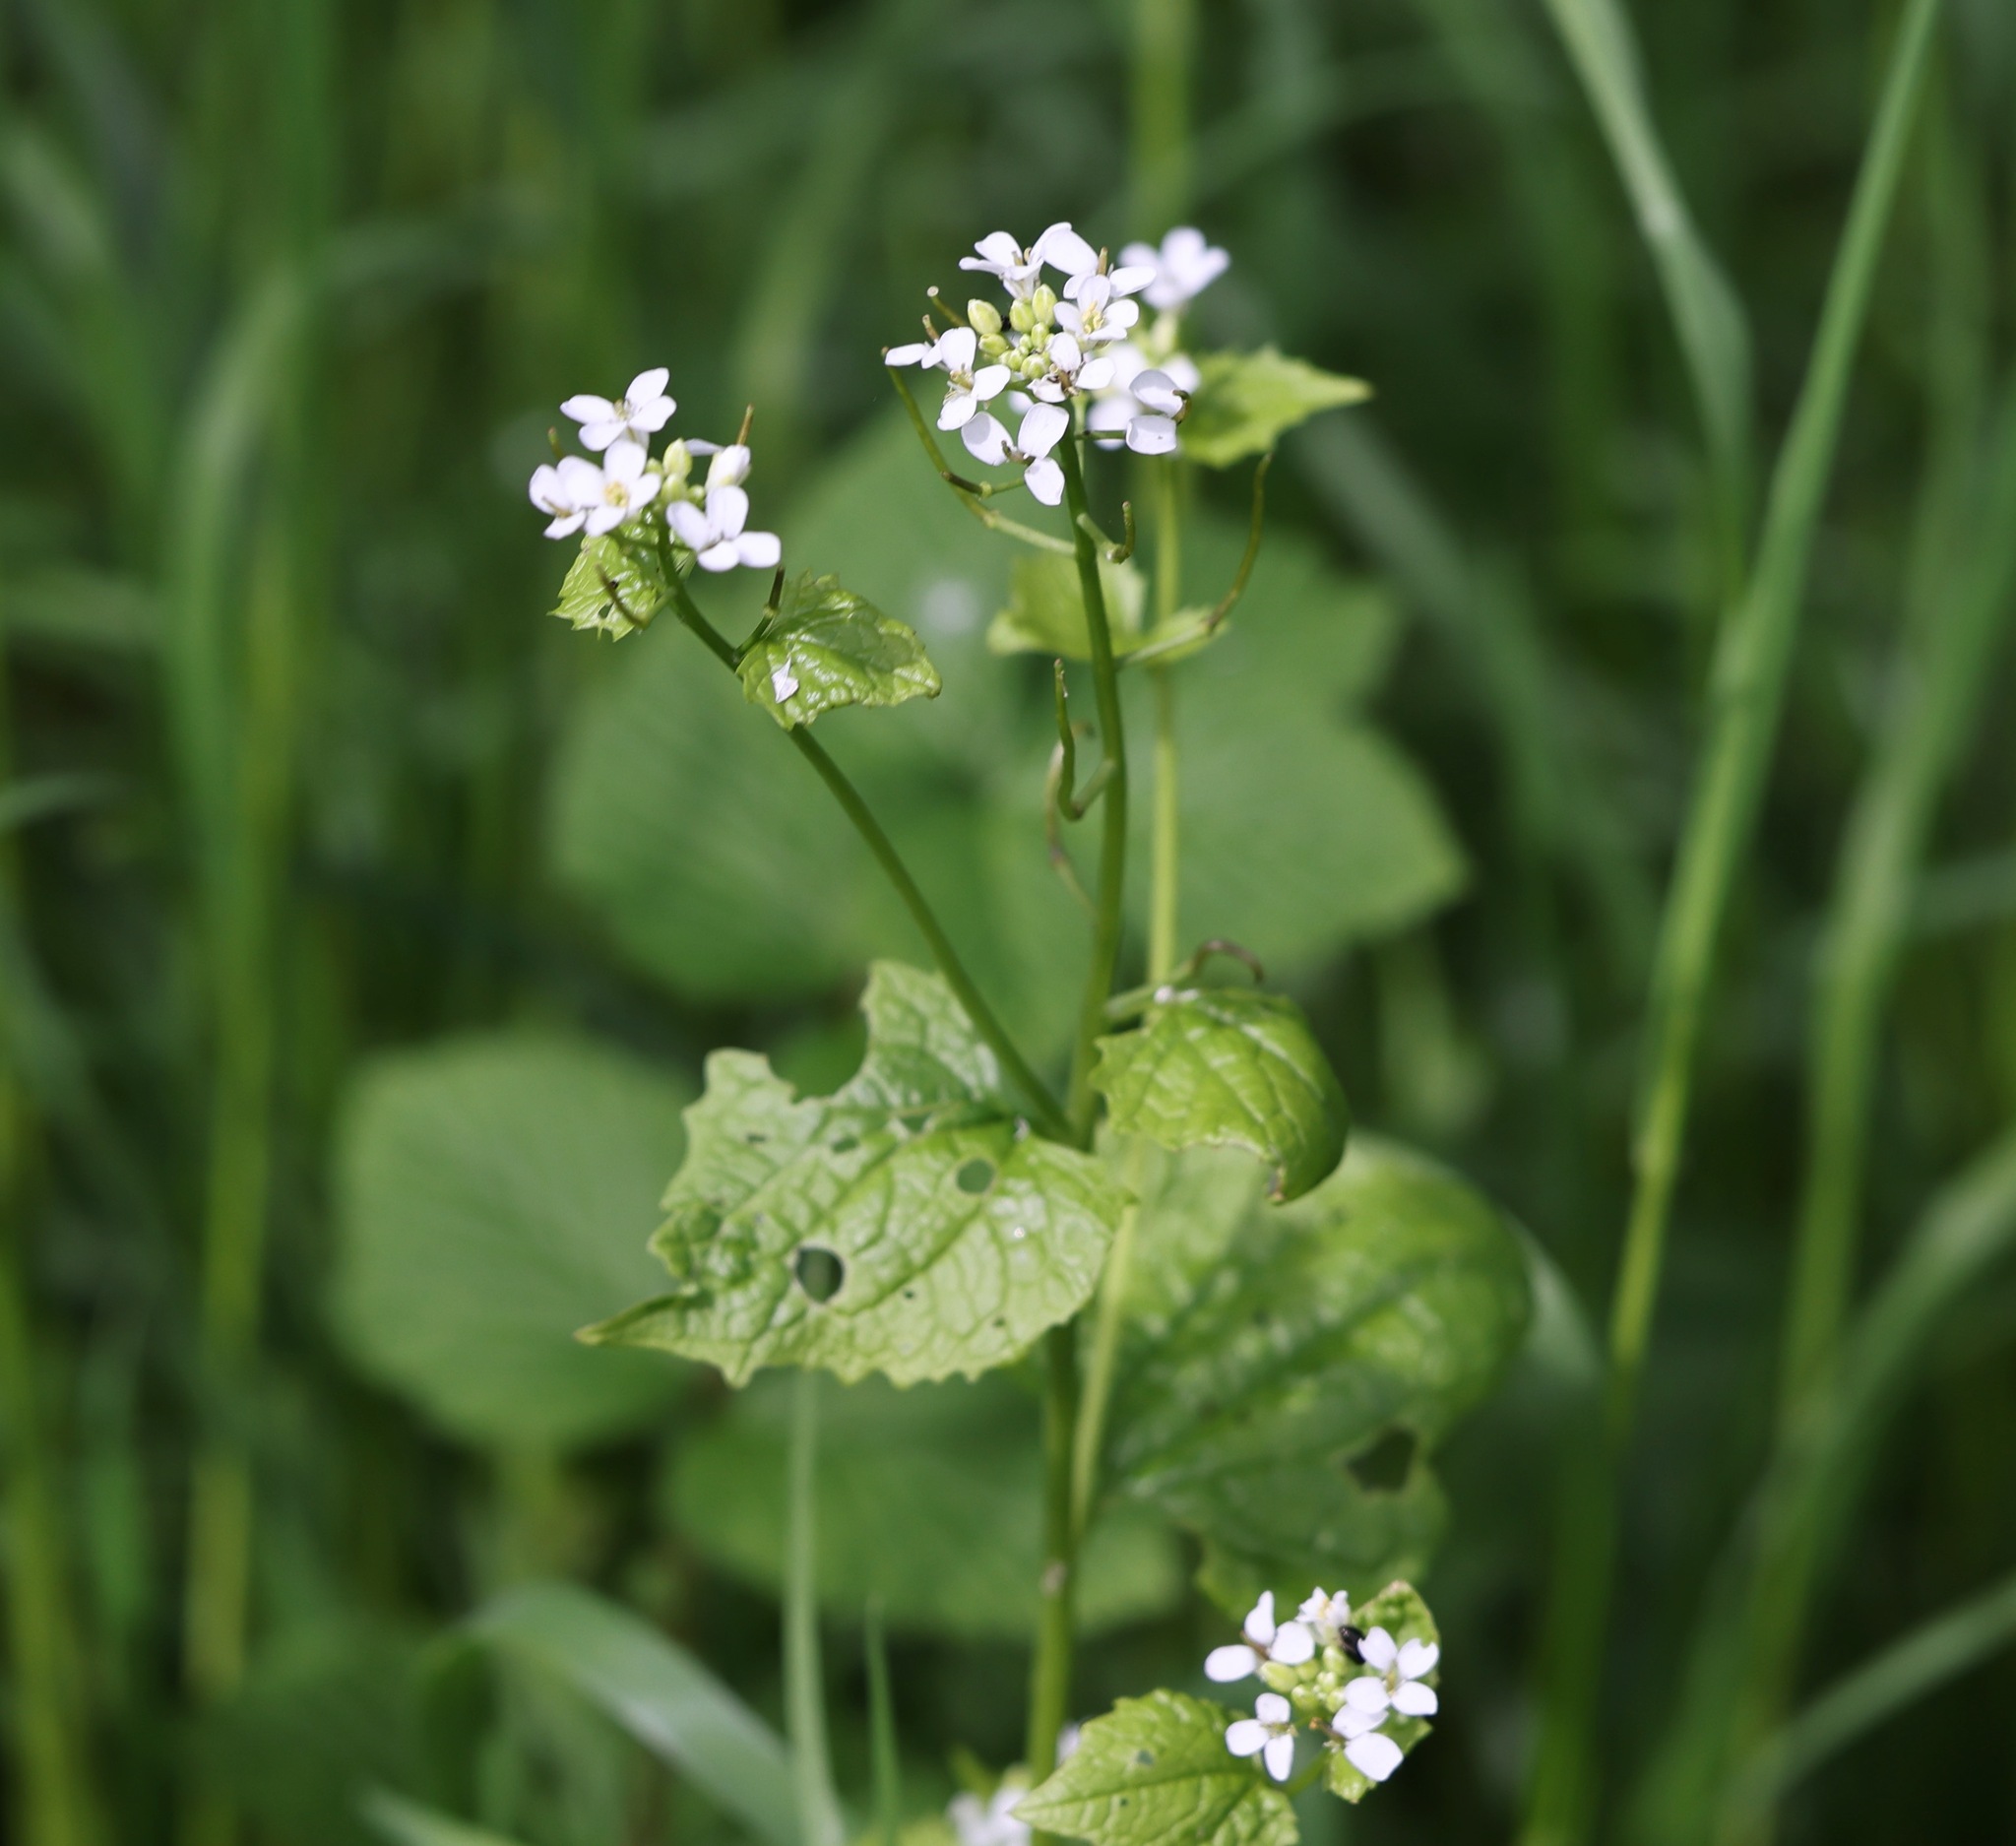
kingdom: Plantae
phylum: Tracheophyta
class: Magnoliopsida
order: Brassicales
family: Brassicaceae
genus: Alliaria
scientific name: Alliaria petiolata
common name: Garlic mustard
